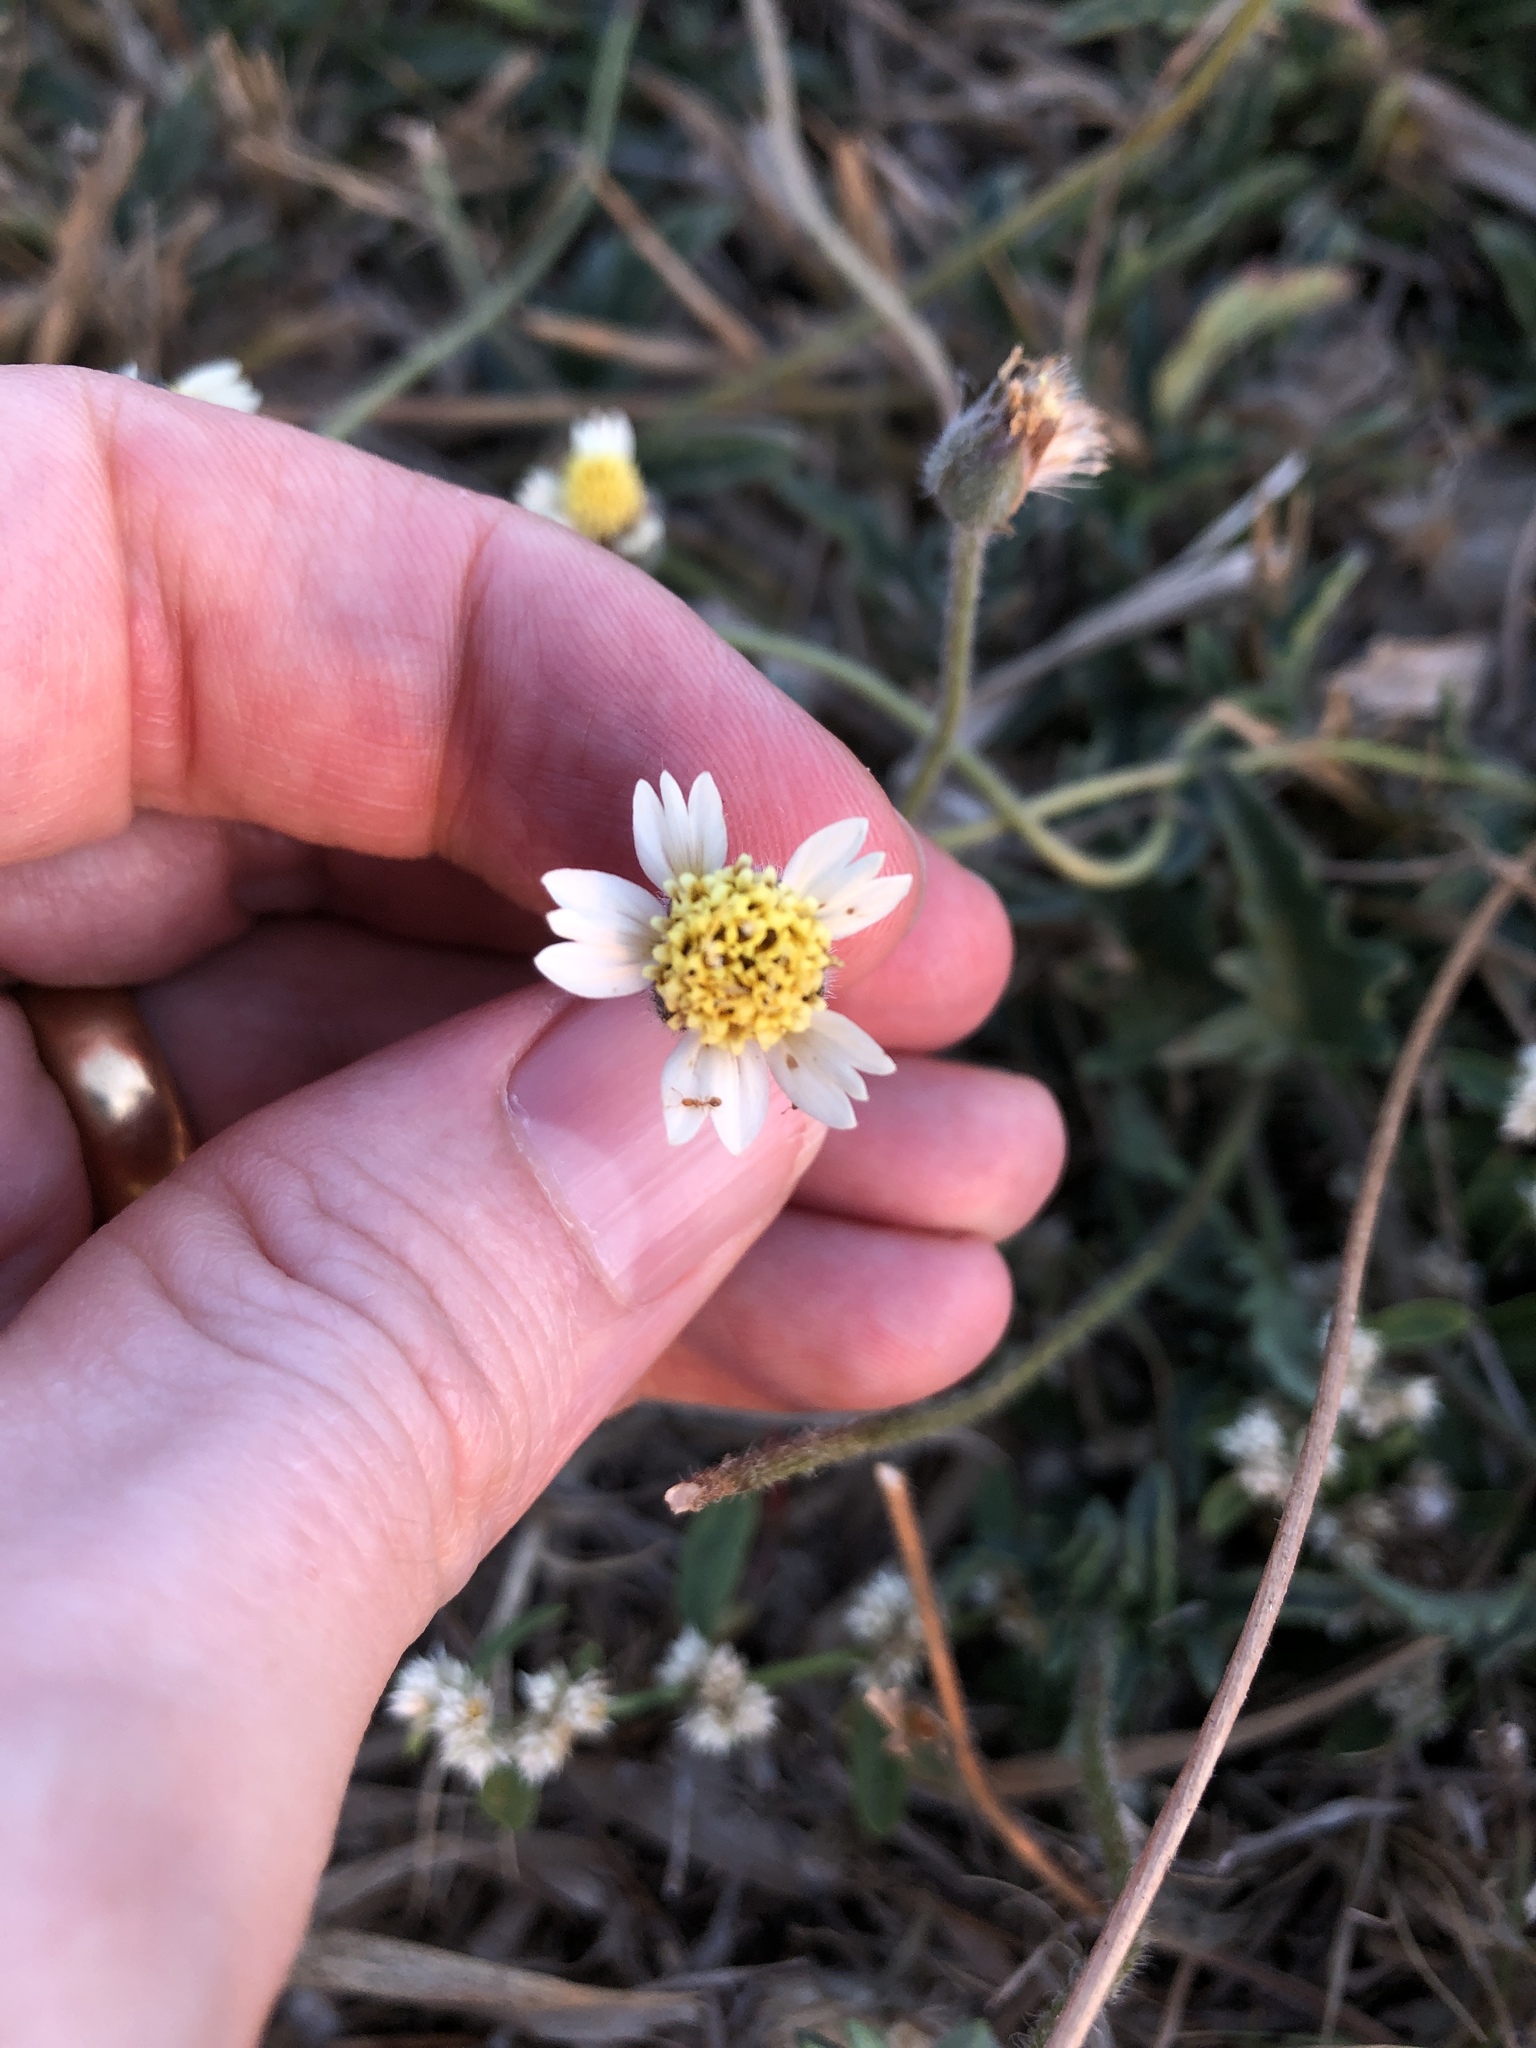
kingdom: Plantae
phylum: Tracheophyta
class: Magnoliopsida
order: Asterales
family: Asteraceae
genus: Tridax
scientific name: Tridax procumbens
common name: Coatbuttons
